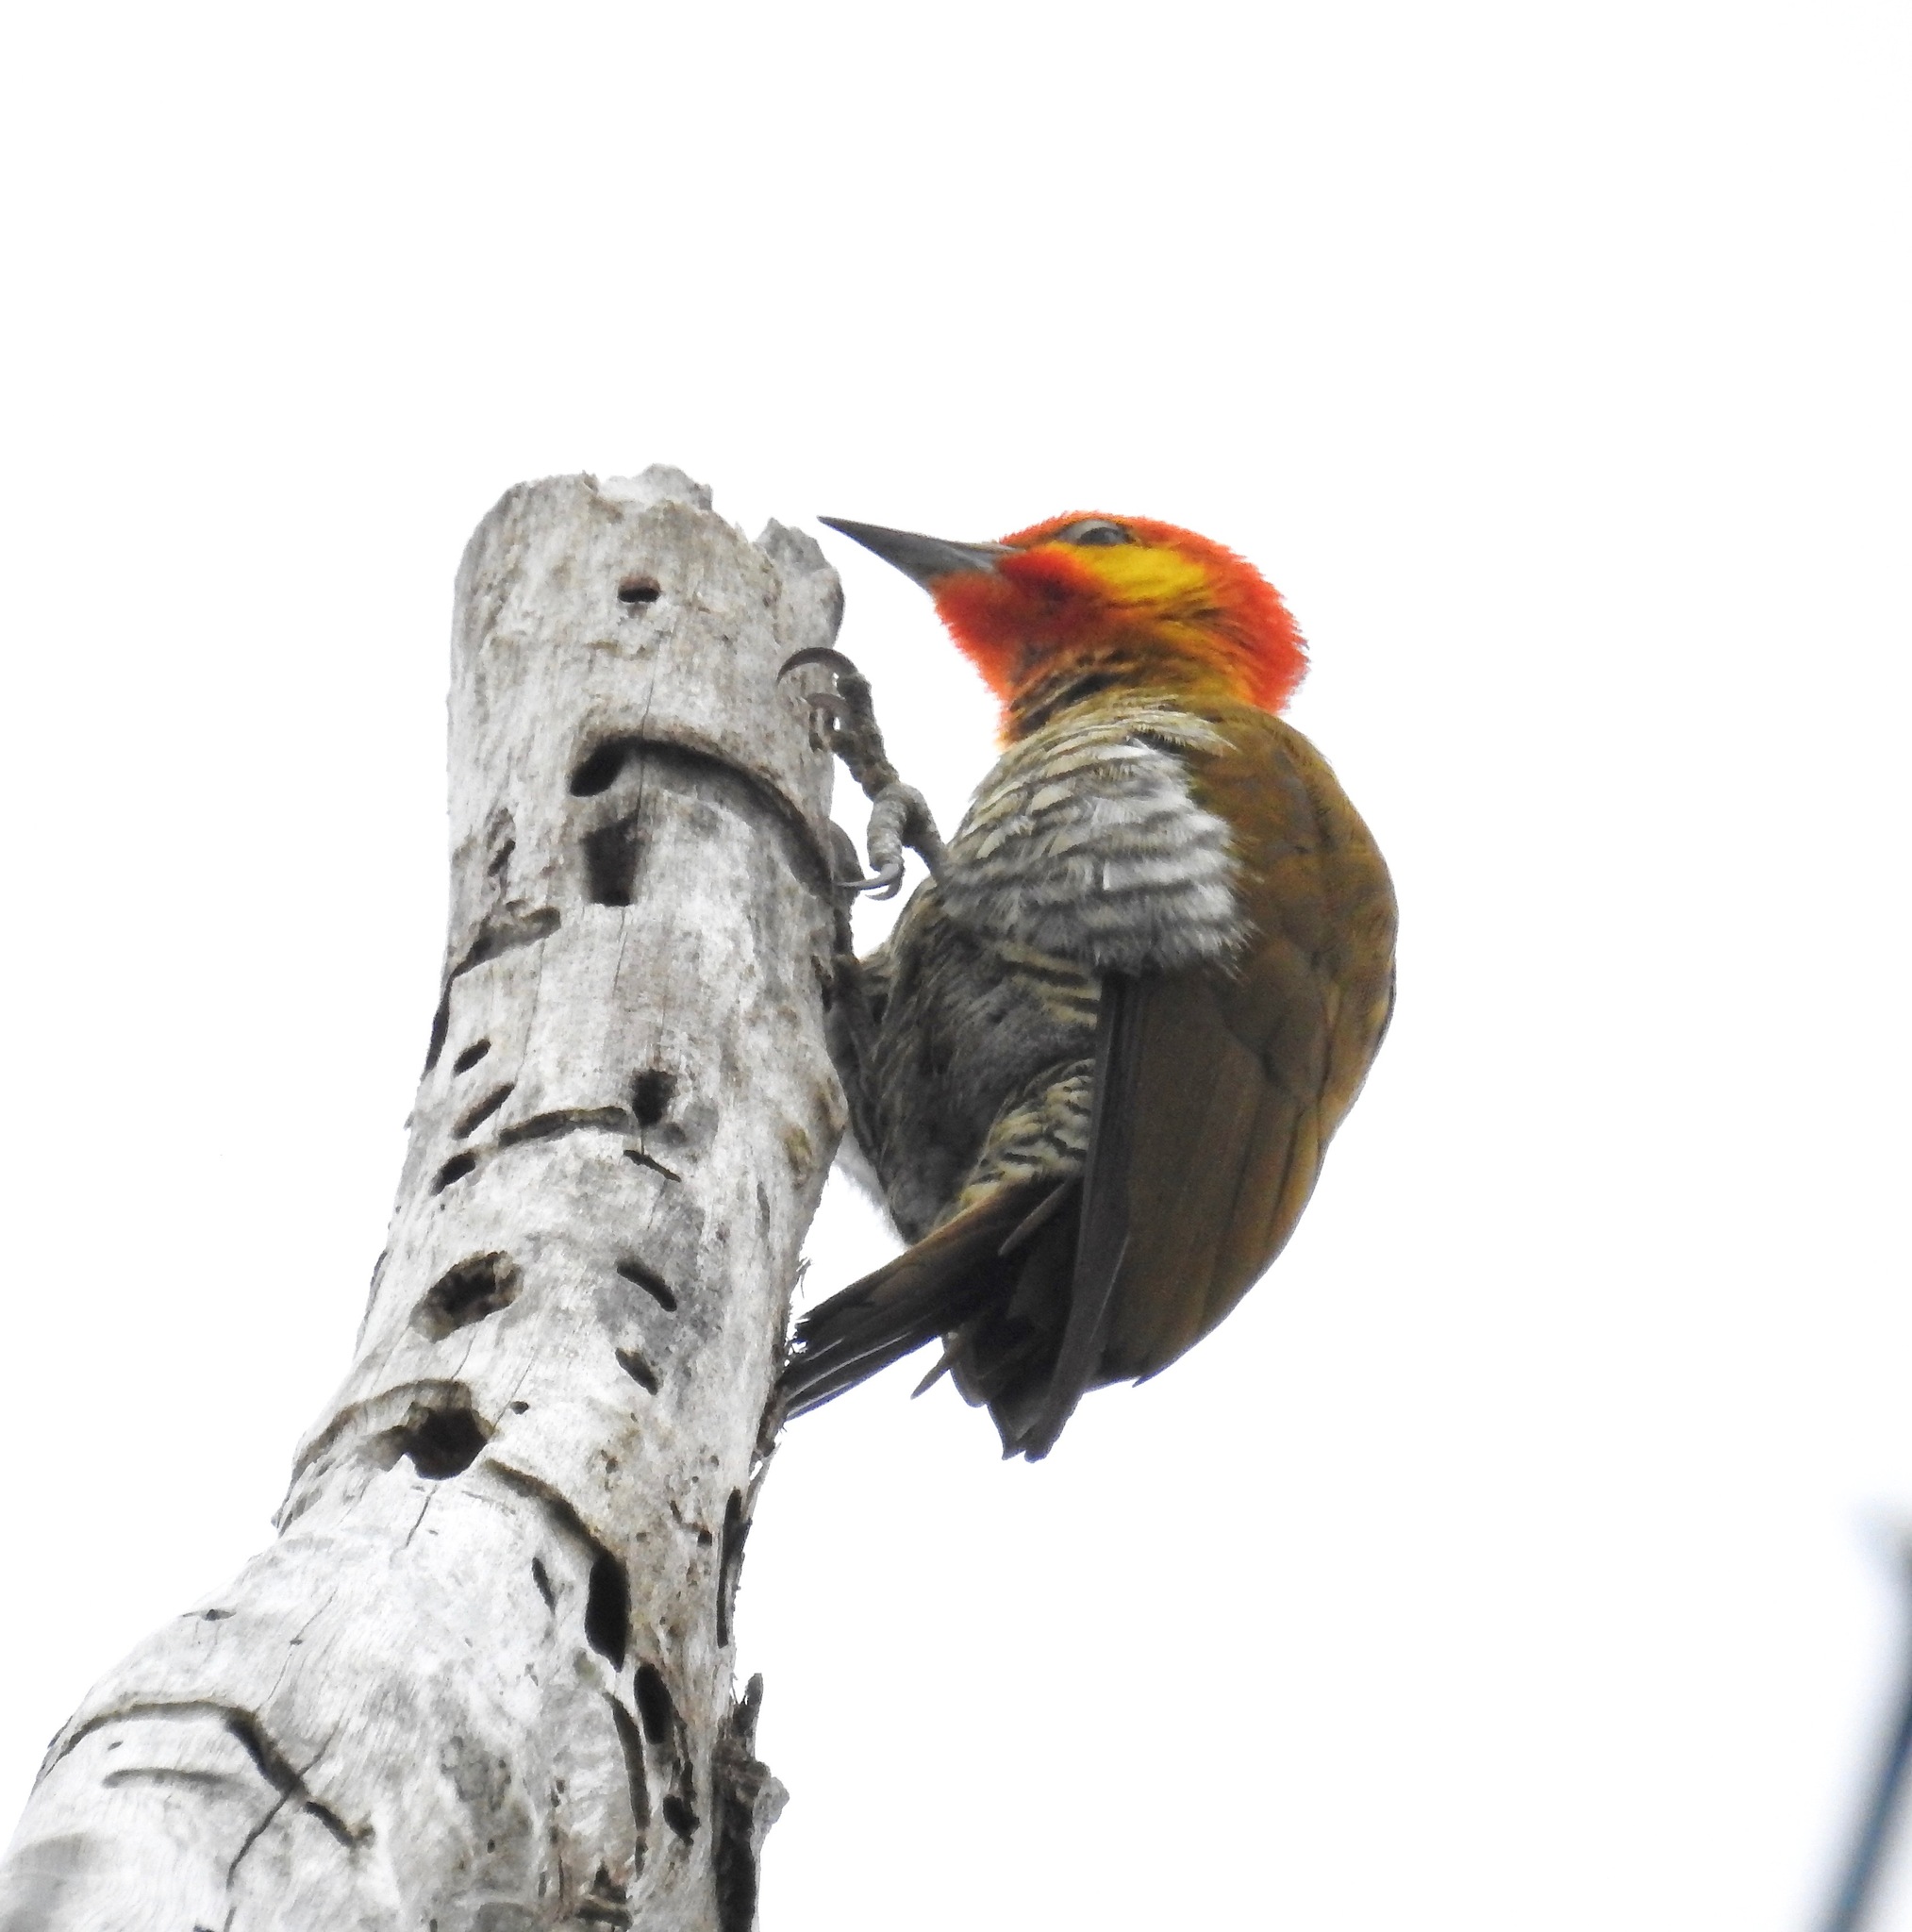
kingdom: Animalia
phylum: Chordata
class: Aves
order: Piciformes
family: Picidae
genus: Piculus
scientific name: Piculus flavigula
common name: Yellow-throated woodpecker
